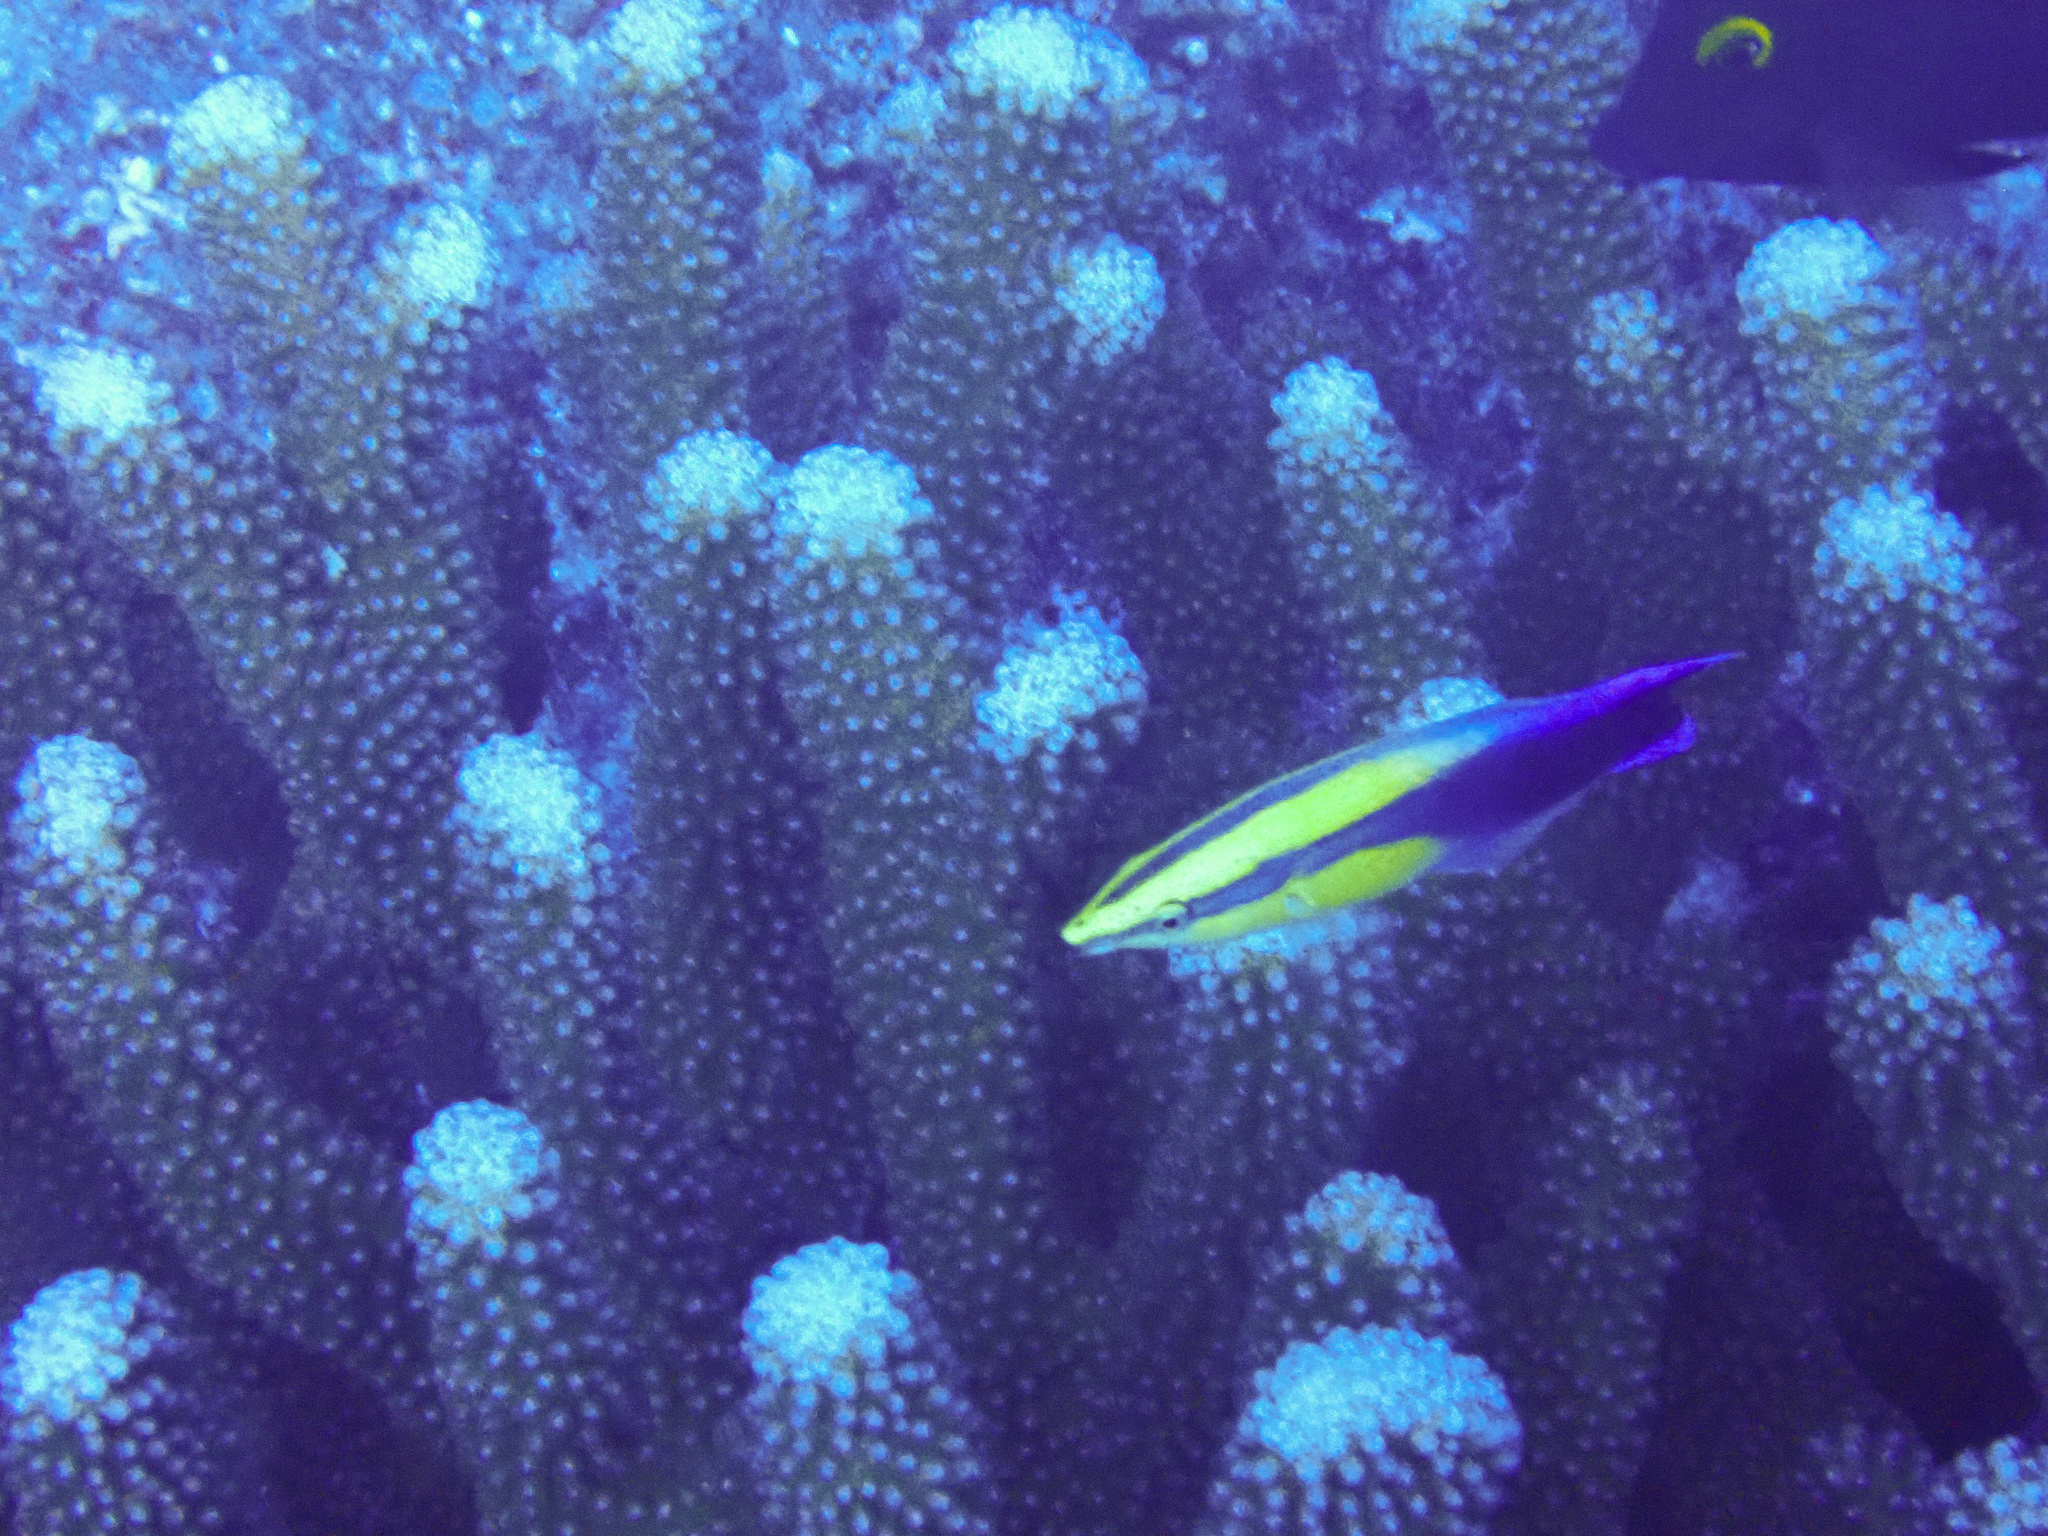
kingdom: Animalia
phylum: Chordata
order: Perciformes
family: Labridae
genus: Labroides
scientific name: Labroides phthirophagus
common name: Cleaner wrasse
